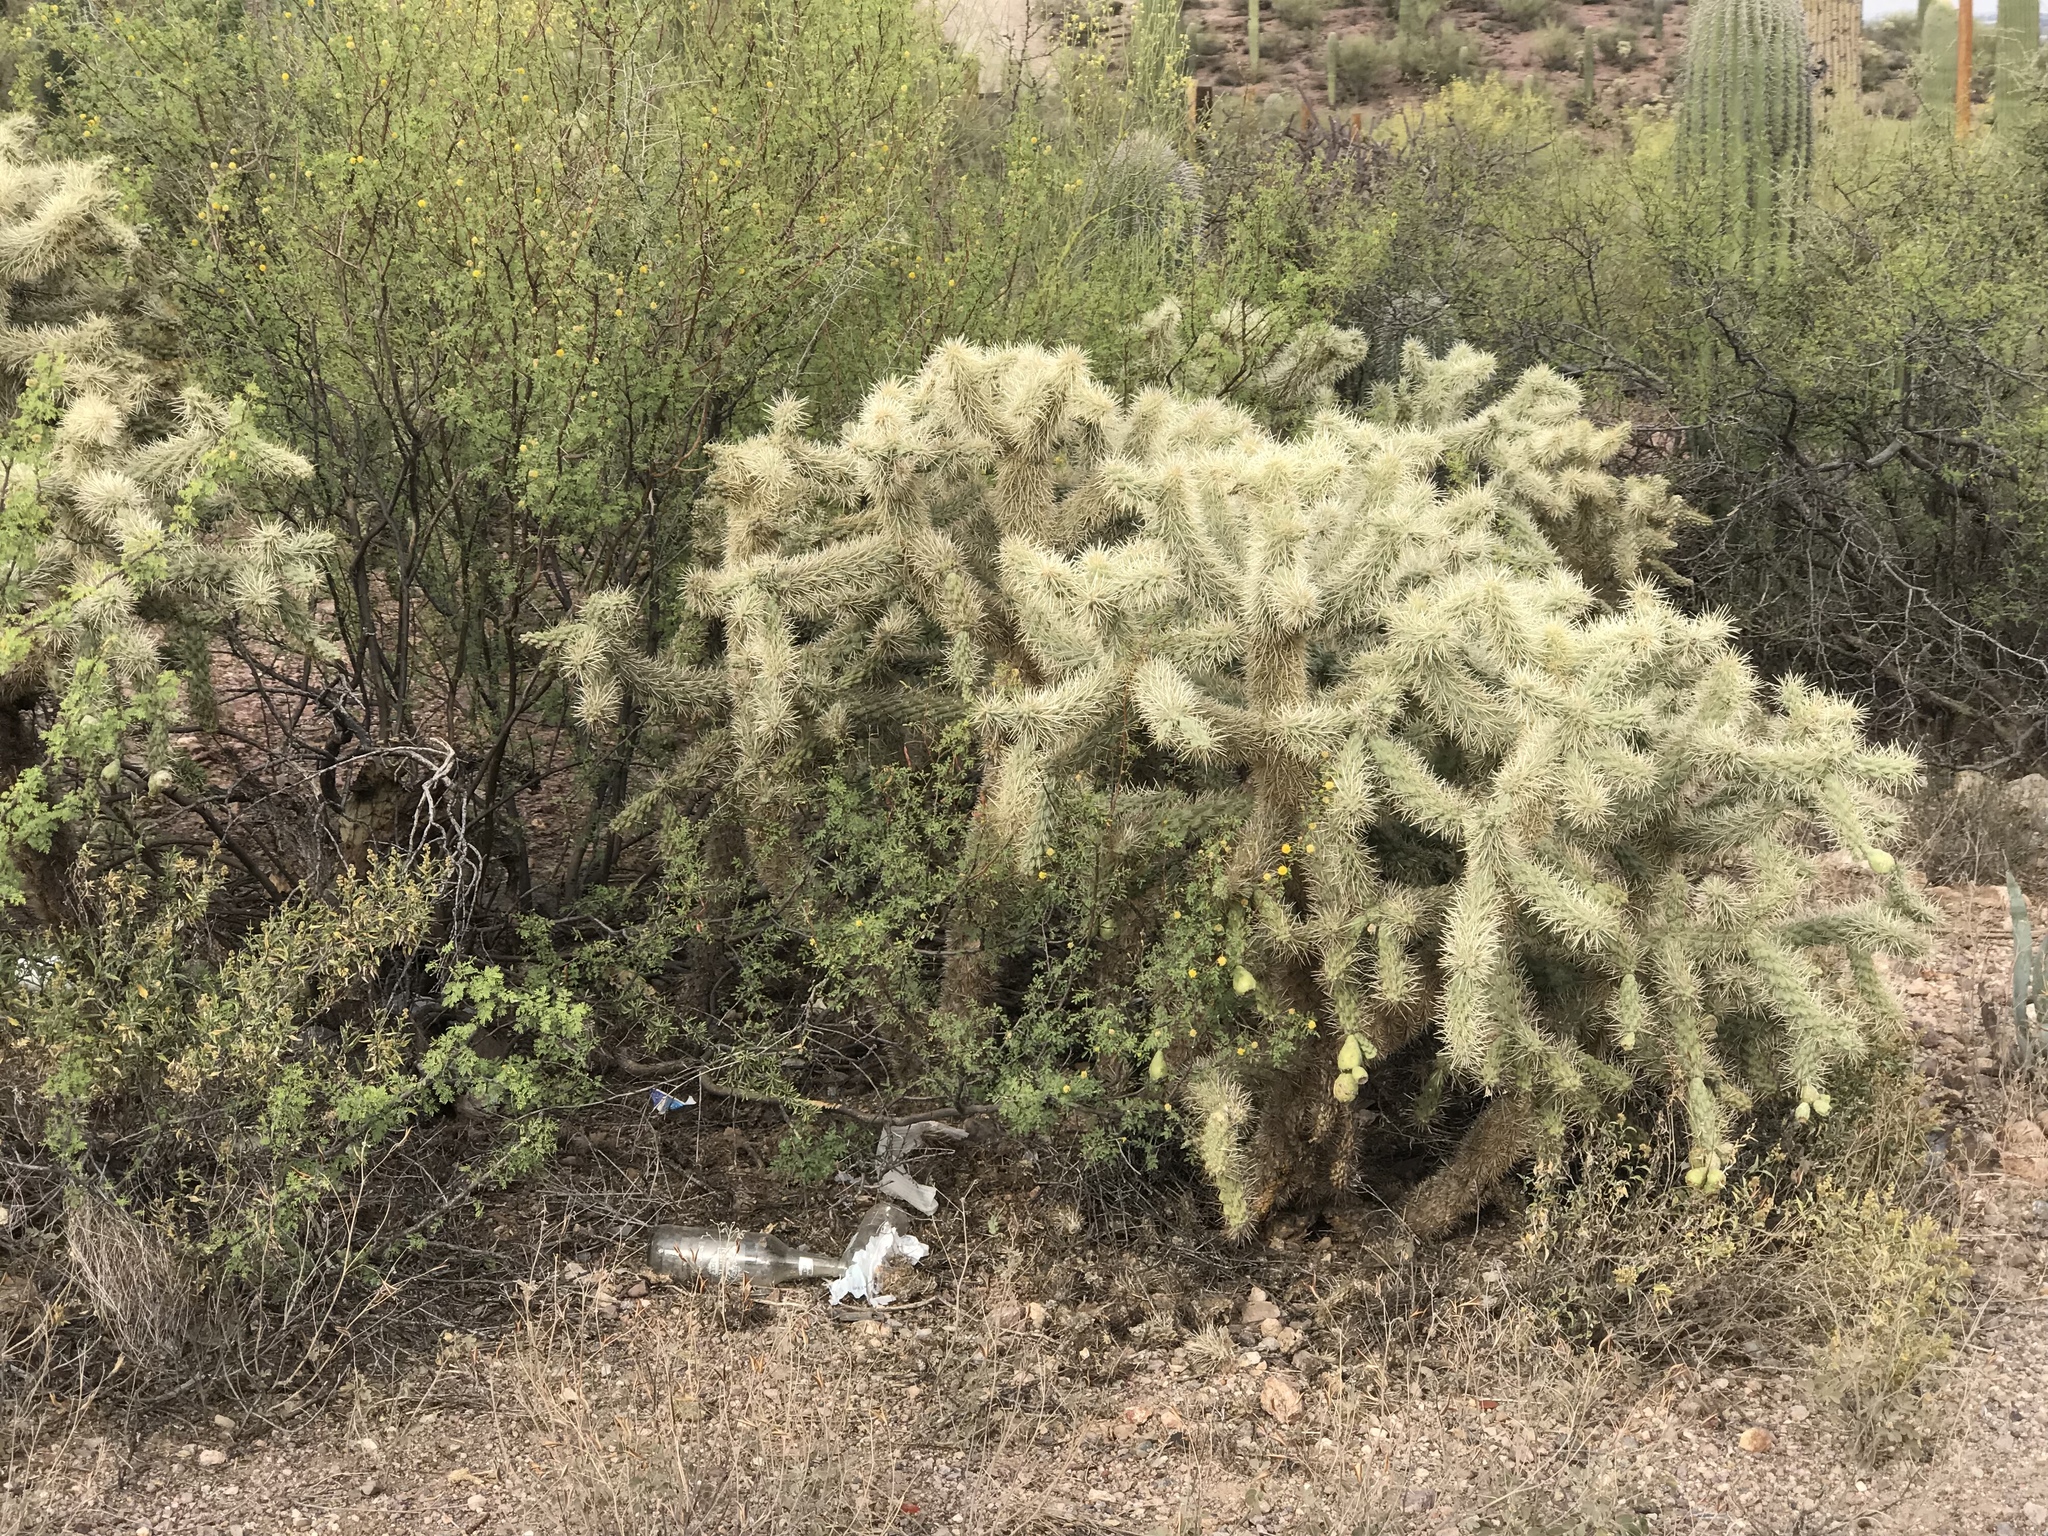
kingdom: Plantae
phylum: Tracheophyta
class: Magnoliopsida
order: Caryophyllales
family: Cactaceae
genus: Cylindropuntia
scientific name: Cylindropuntia fulgida
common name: Jumping cholla
